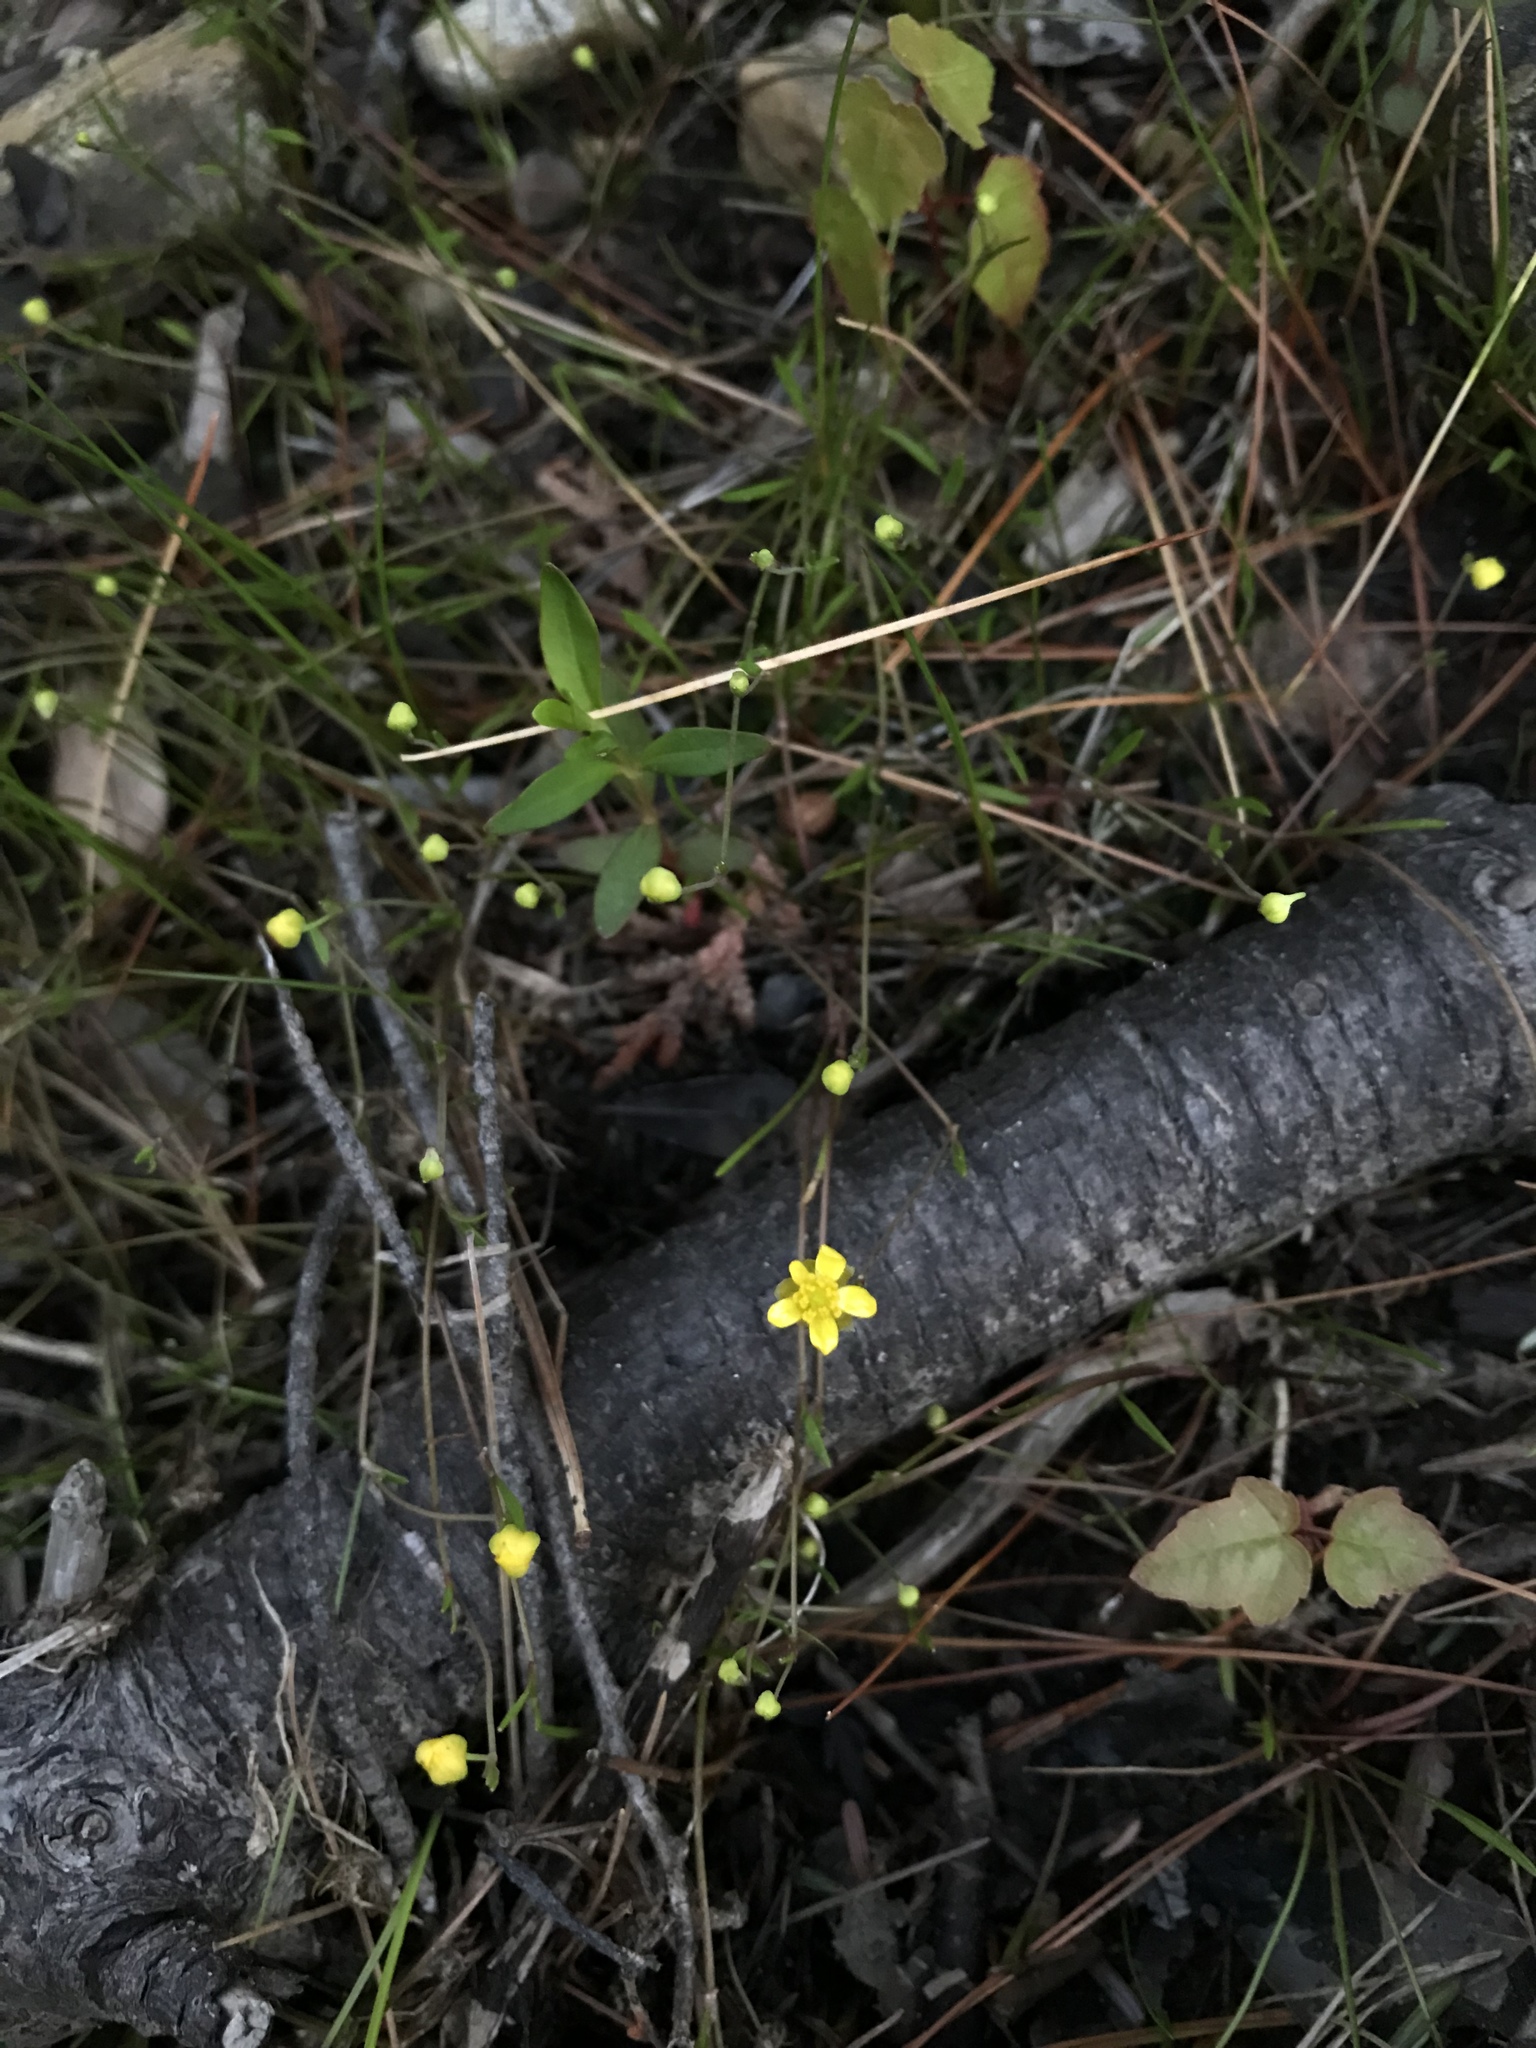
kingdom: Plantae
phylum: Tracheophyta
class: Magnoliopsida
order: Ranunculales
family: Ranunculaceae
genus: Ranunculus
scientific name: Ranunculus flammula
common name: Lesser spearwort
